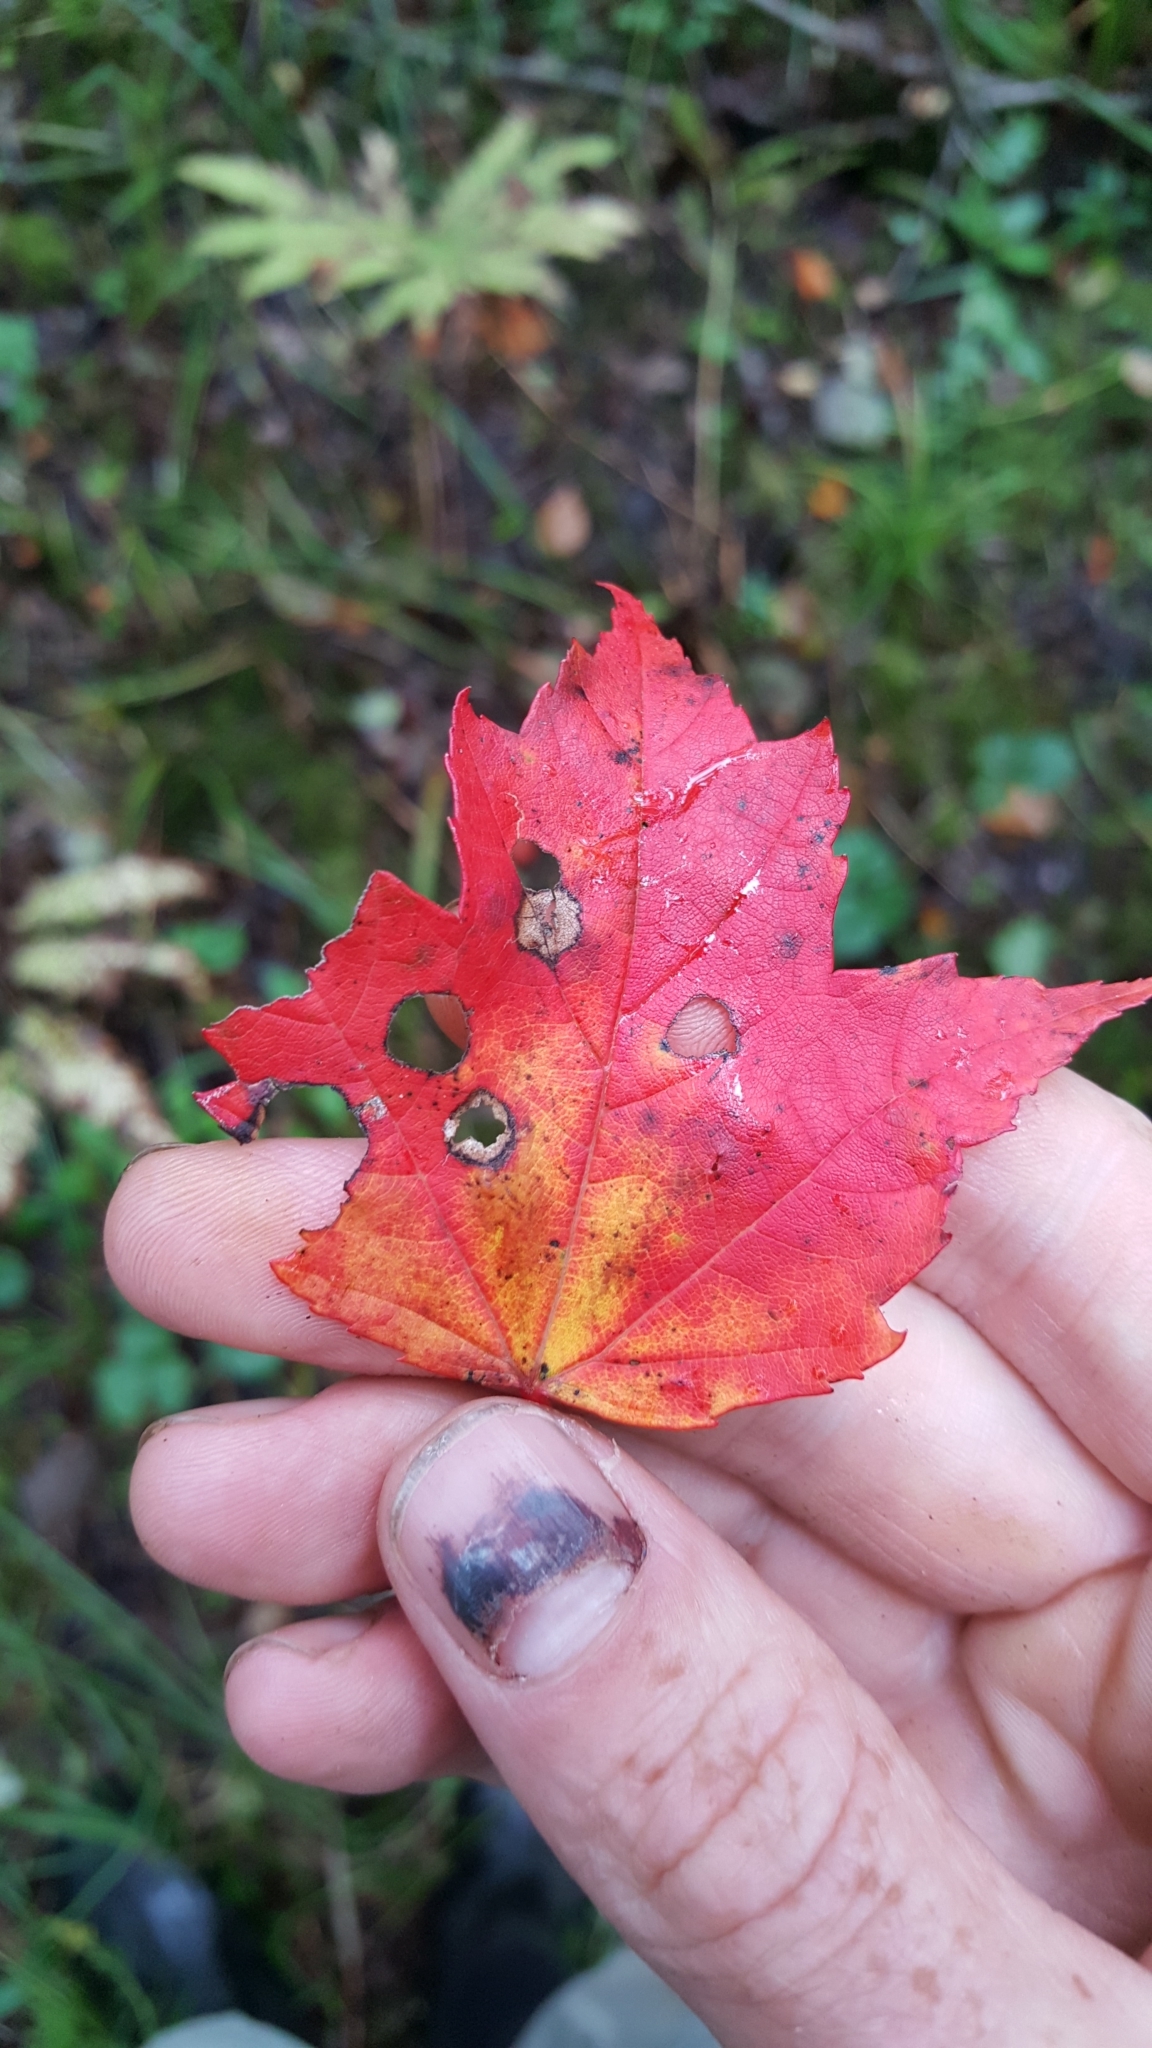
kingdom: Plantae
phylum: Tracheophyta
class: Magnoliopsida
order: Sapindales
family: Sapindaceae
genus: Acer
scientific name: Acer rubrum
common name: Red maple
